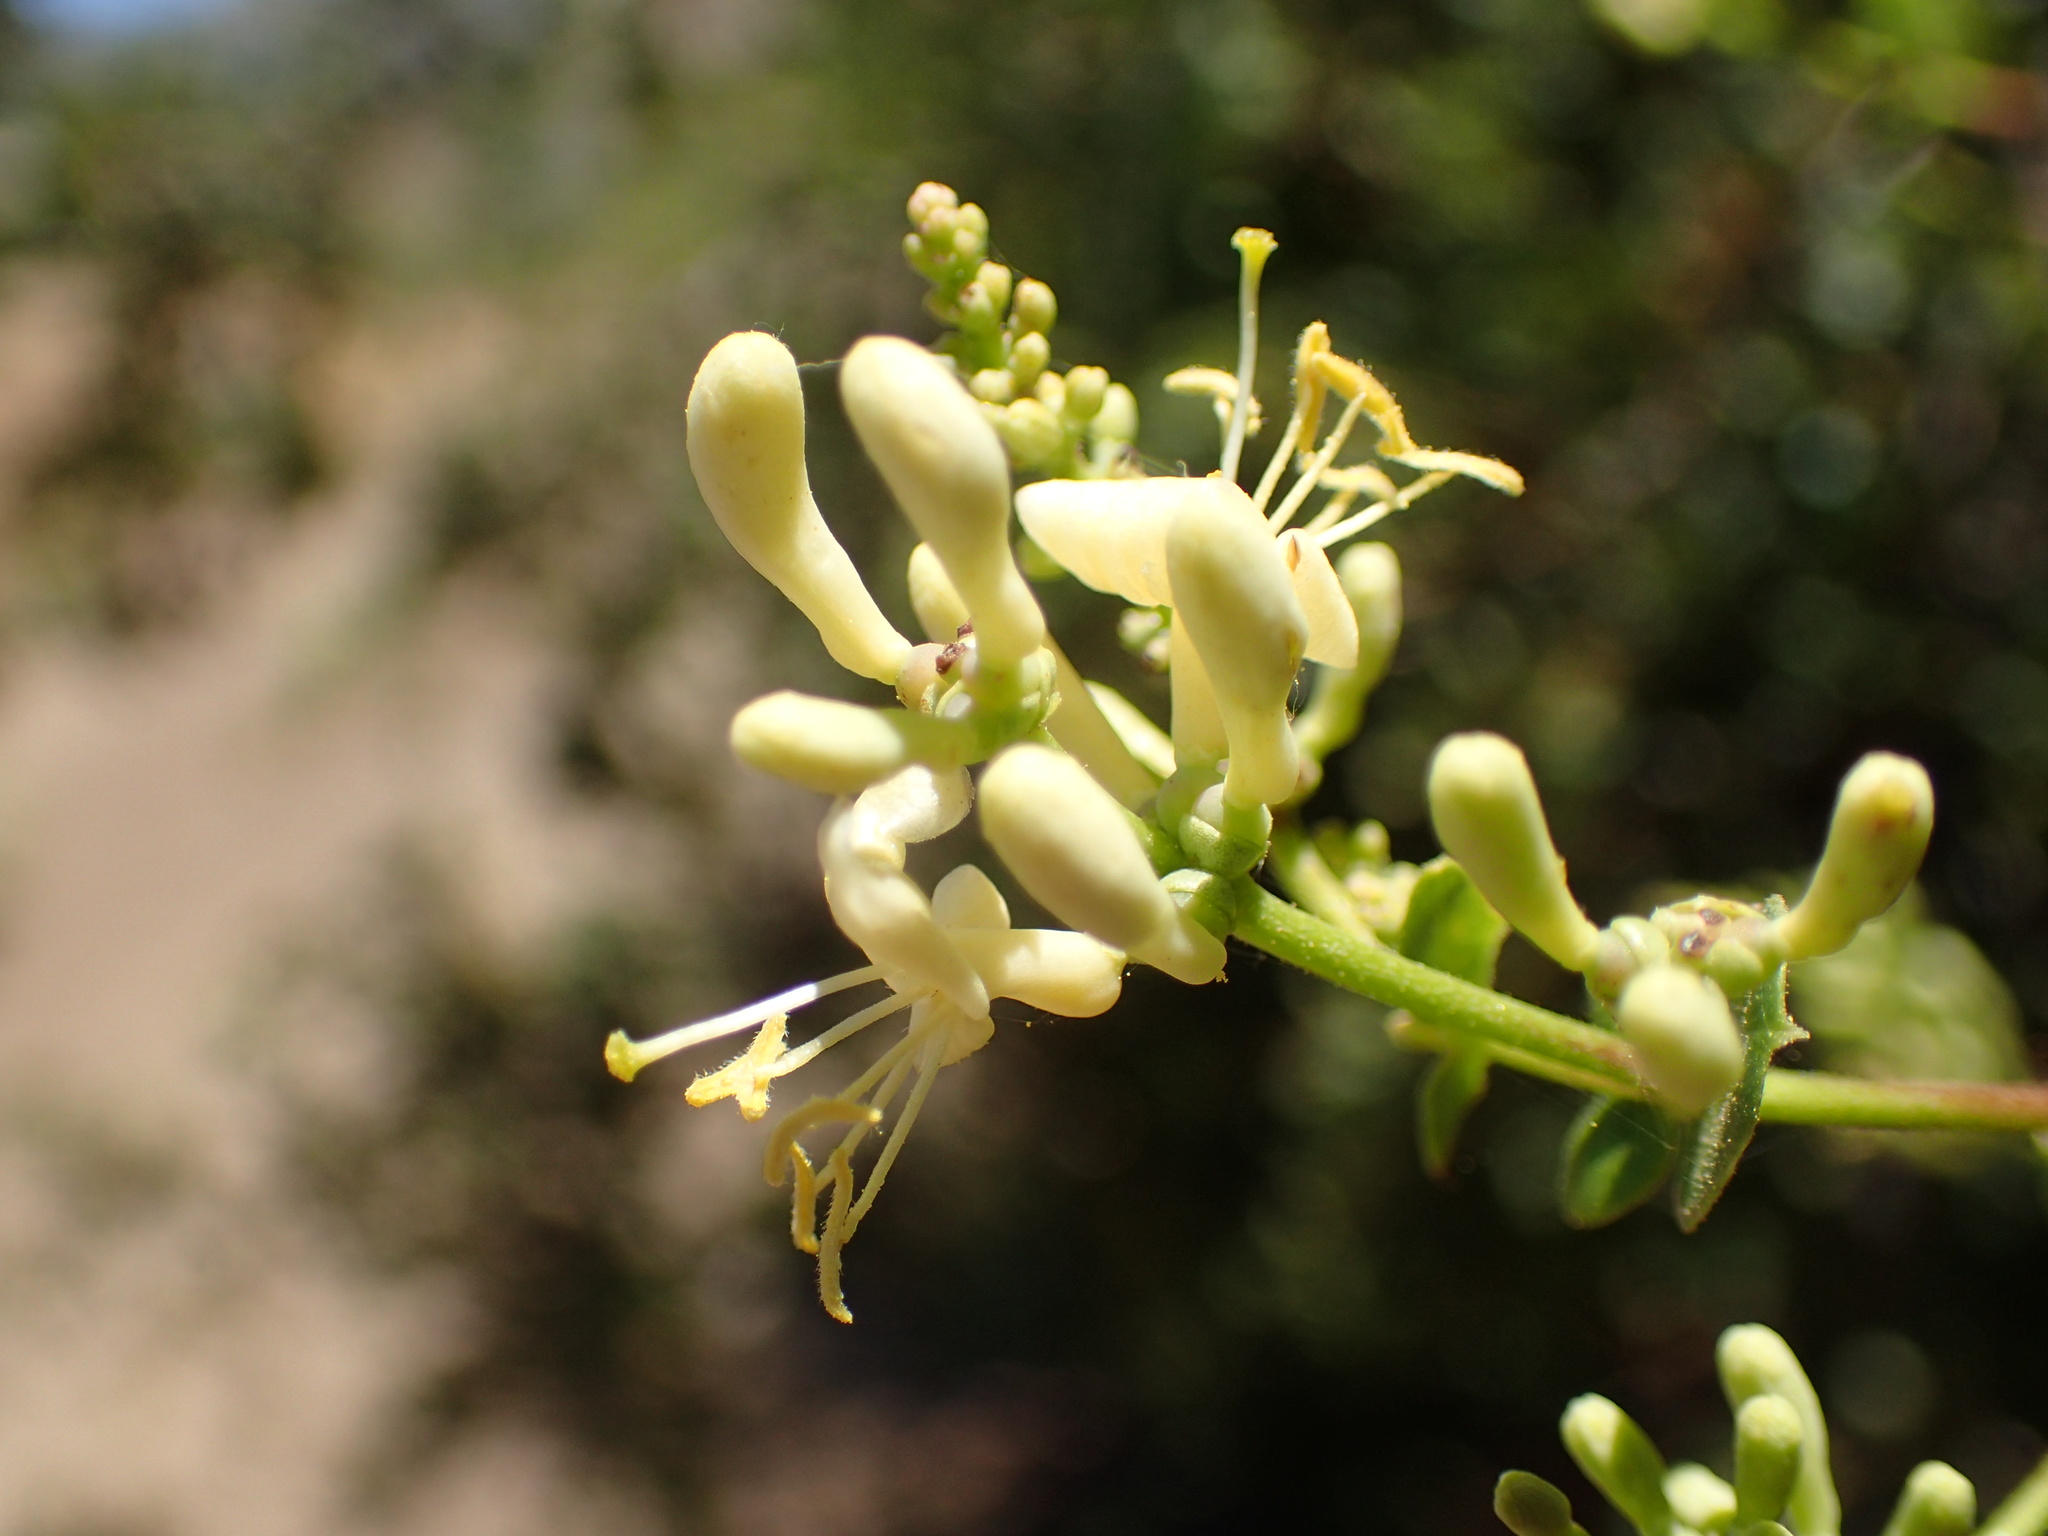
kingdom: Plantae
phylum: Tracheophyta
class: Magnoliopsida
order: Dipsacales
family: Caprifoliaceae
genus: Lonicera
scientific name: Lonicera subspicata
